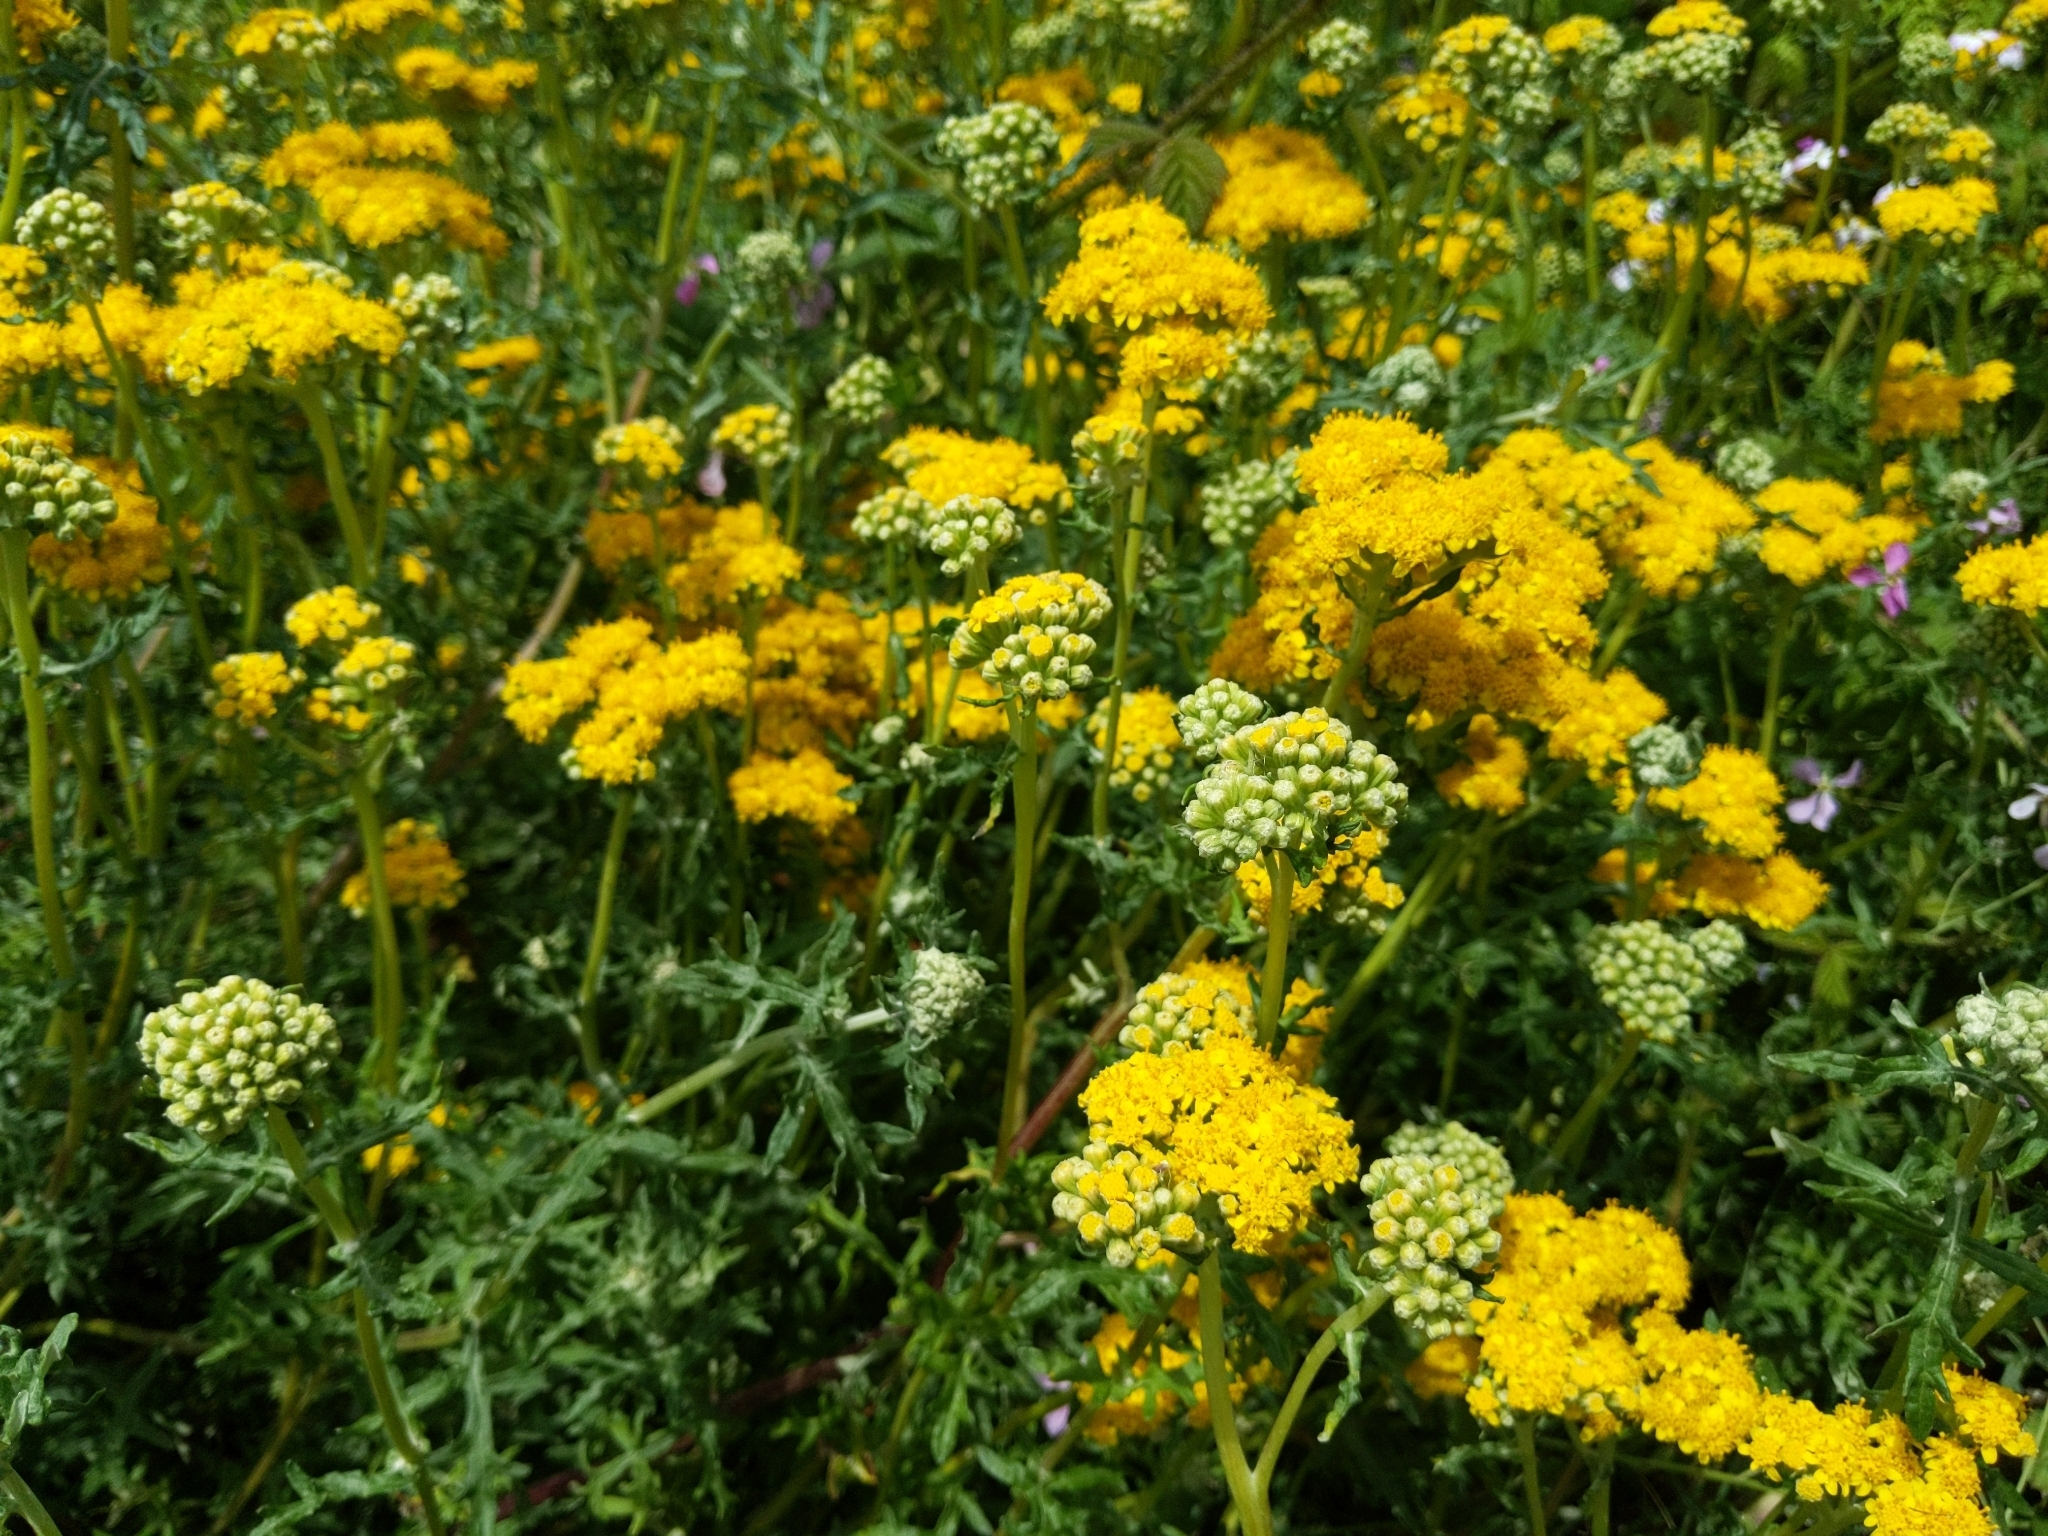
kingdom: Plantae
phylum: Tracheophyta
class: Magnoliopsida
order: Asterales
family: Asteraceae
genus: Eriophyllum
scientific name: Eriophyllum staechadifolium
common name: Lizardtail
